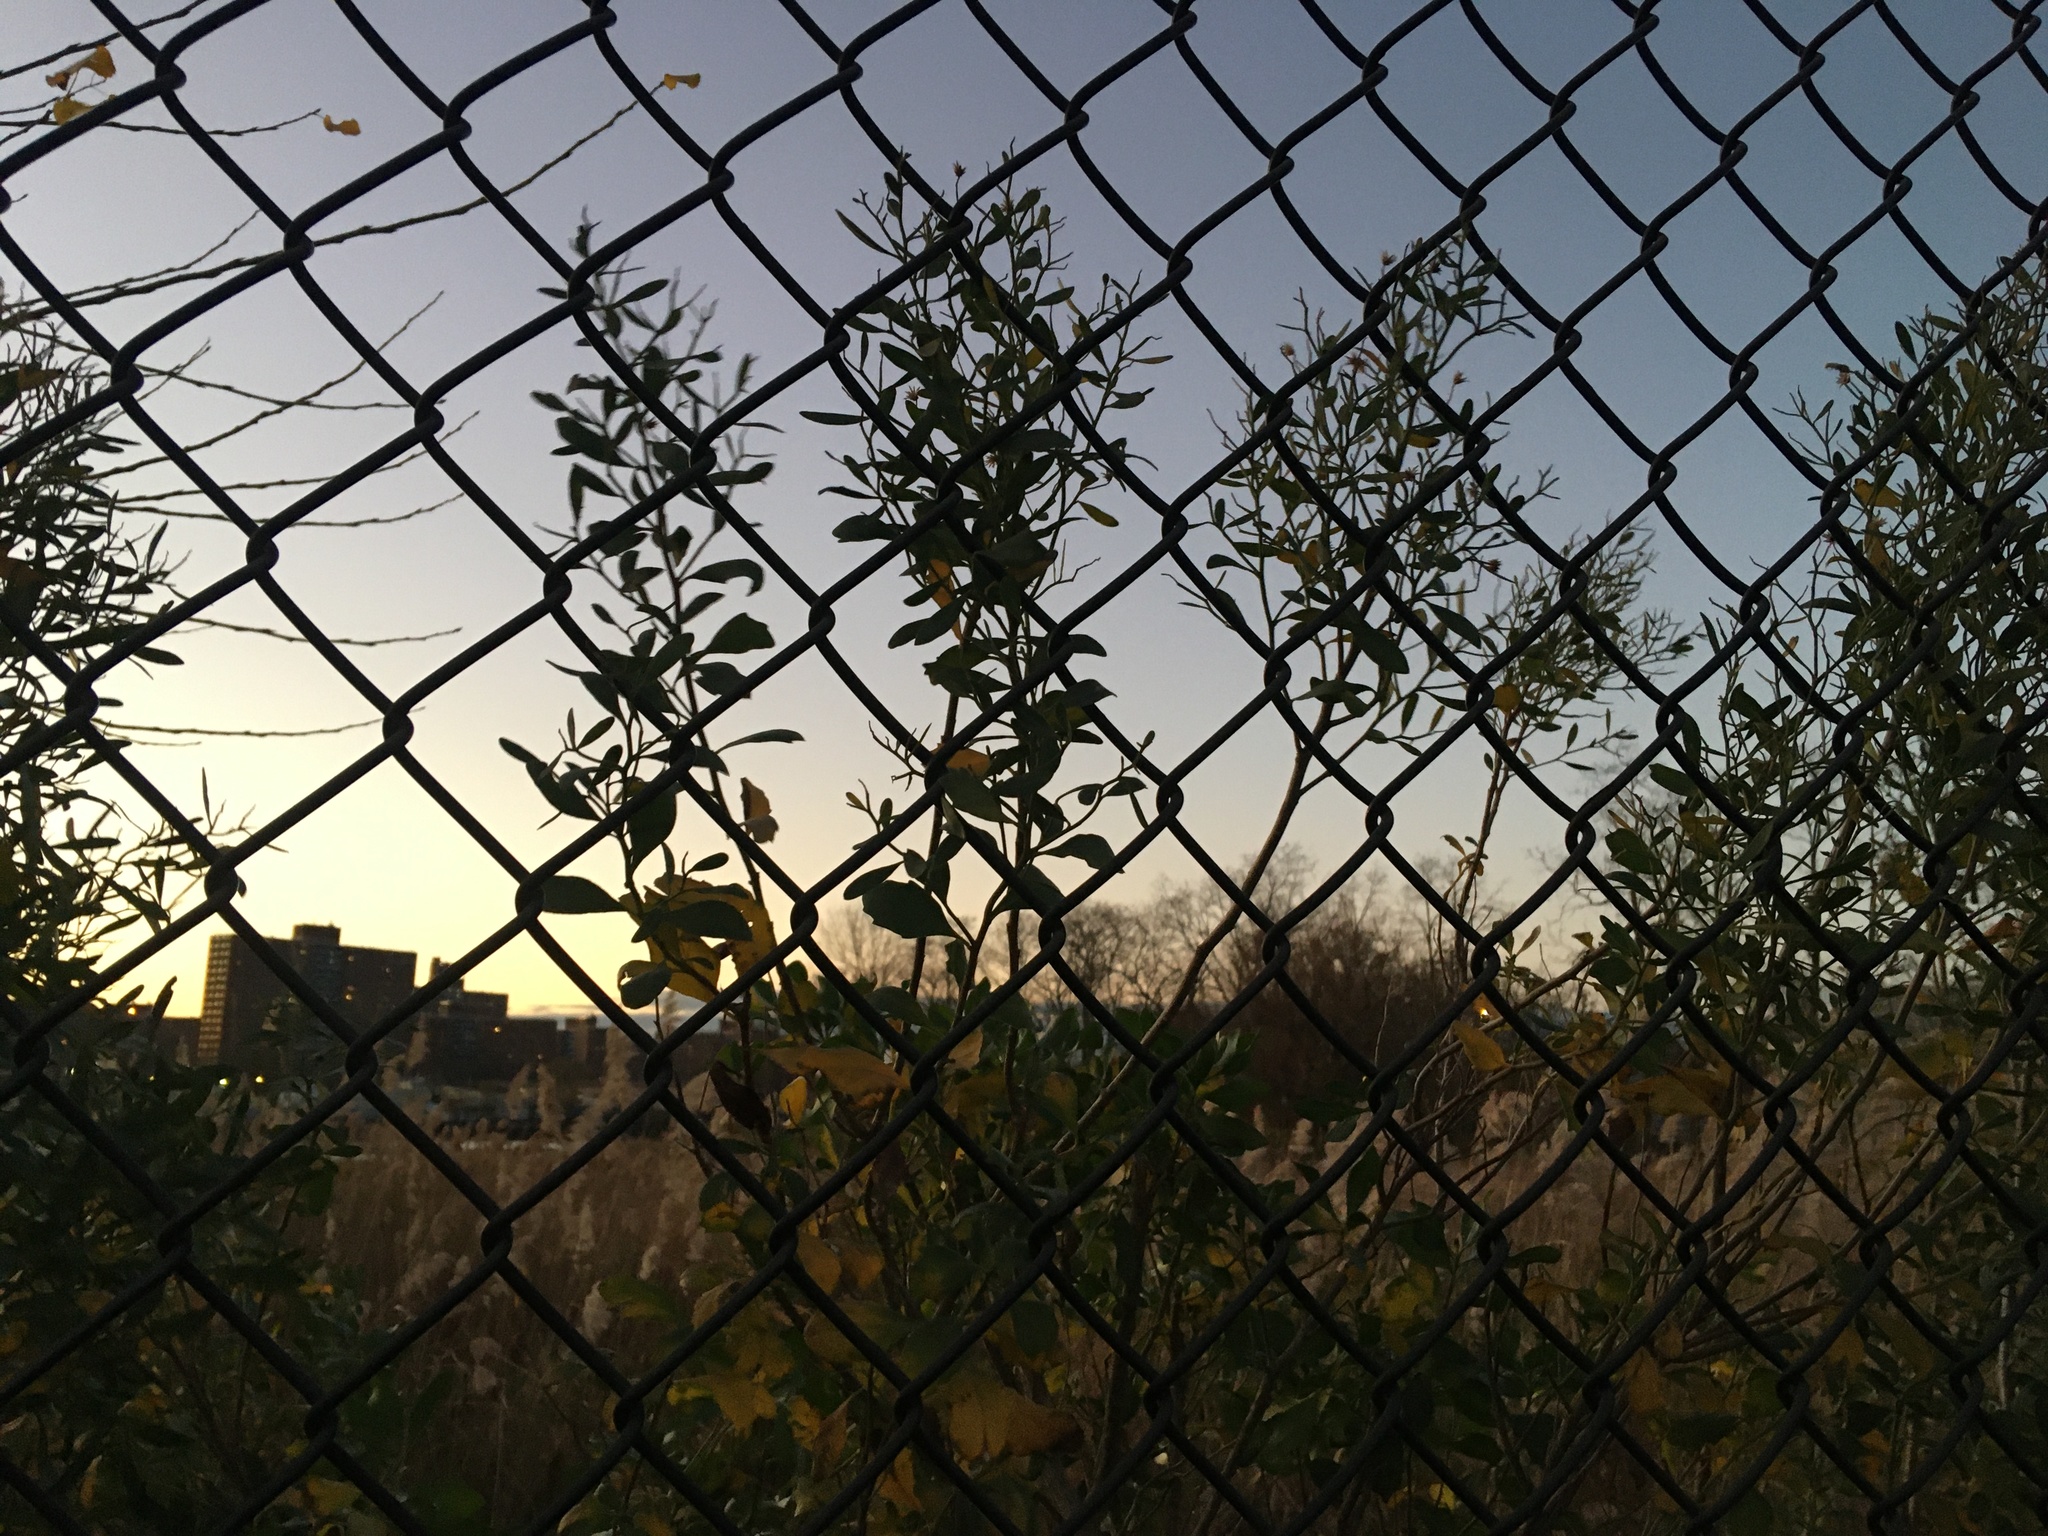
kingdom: Plantae
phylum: Tracheophyta
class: Magnoliopsida
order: Asterales
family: Asteraceae
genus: Baccharis
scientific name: Baccharis halimifolia
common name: Eastern baccharis
